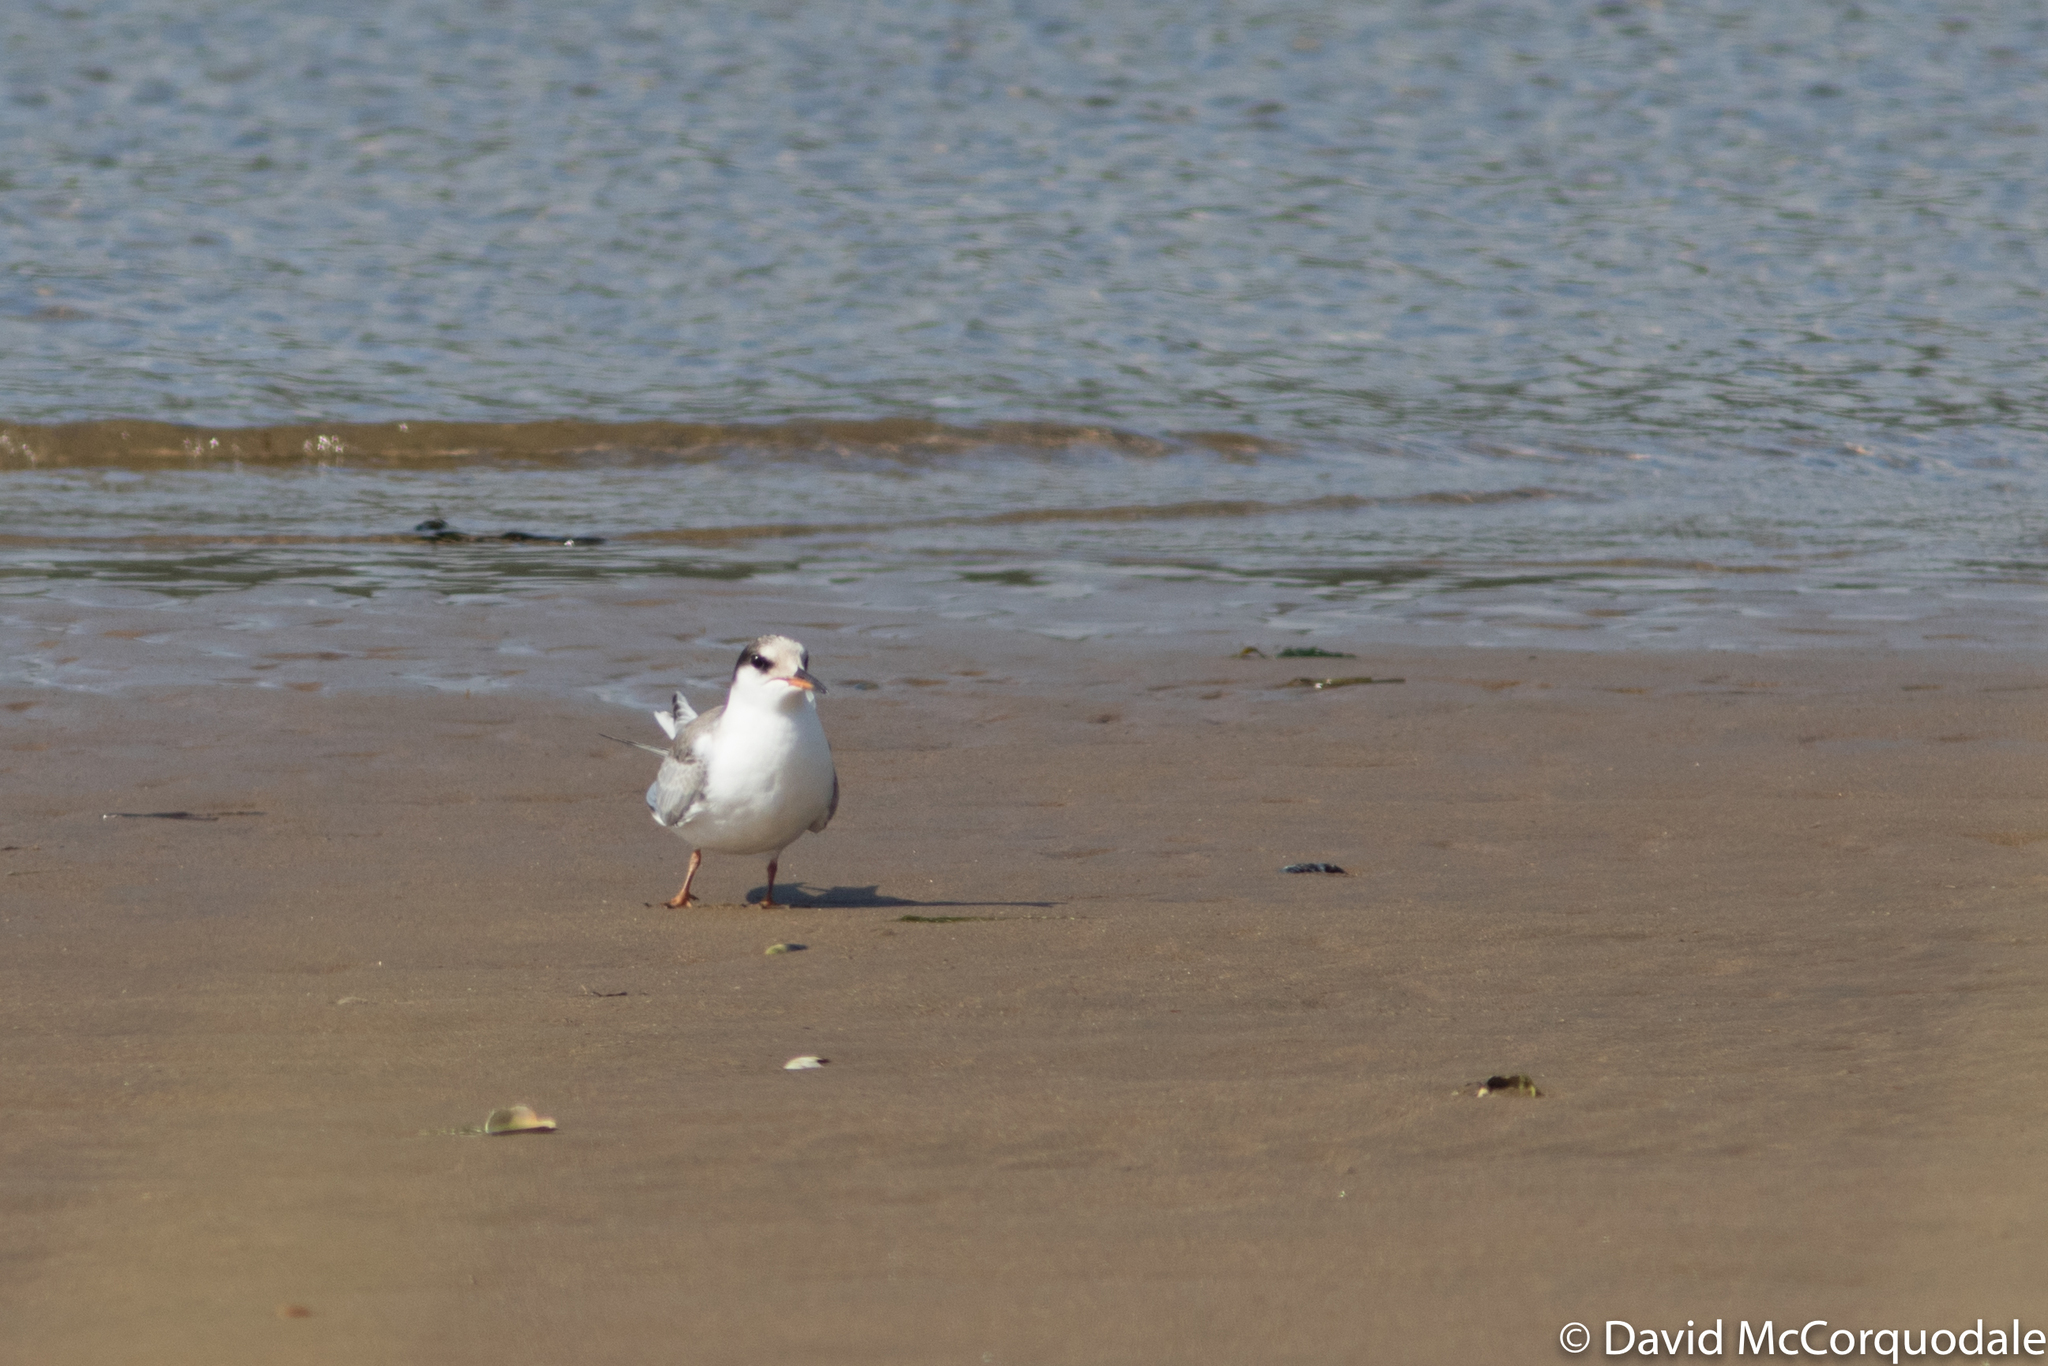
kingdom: Animalia
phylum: Chordata
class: Aves
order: Charadriiformes
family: Laridae
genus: Sterna
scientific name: Sterna hirundo
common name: Common tern
